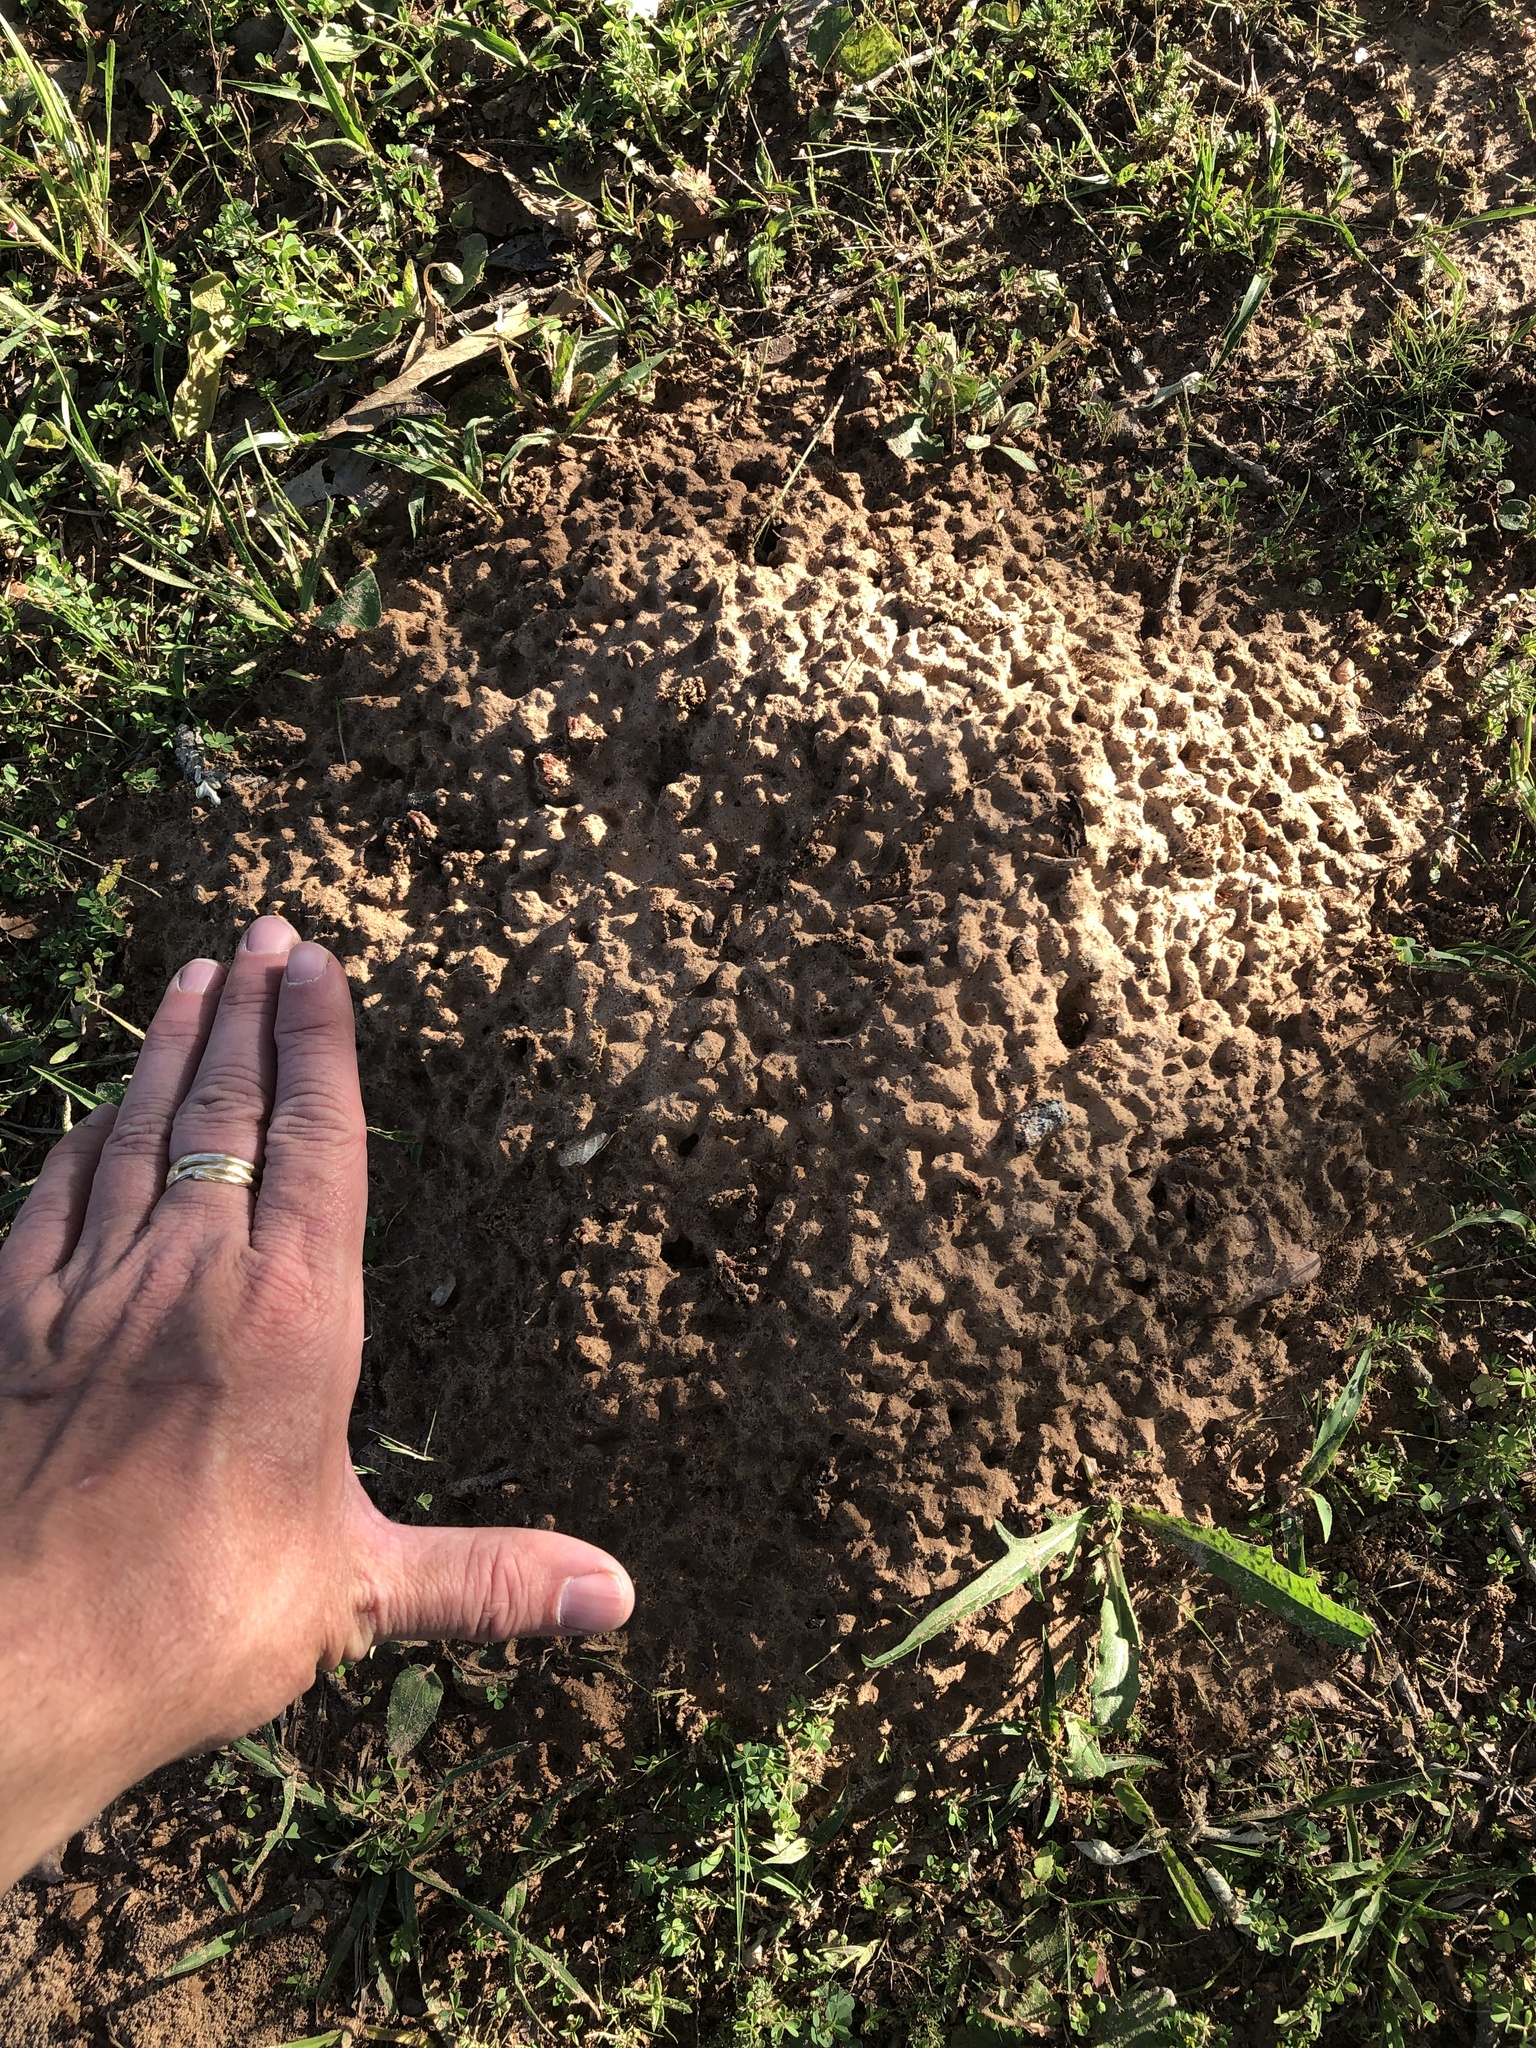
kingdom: Animalia
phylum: Chordata
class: Mammalia
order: Rodentia
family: Geomyidae
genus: Geomys
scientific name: Geomys breviceps
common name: Baird's pocket gopher
